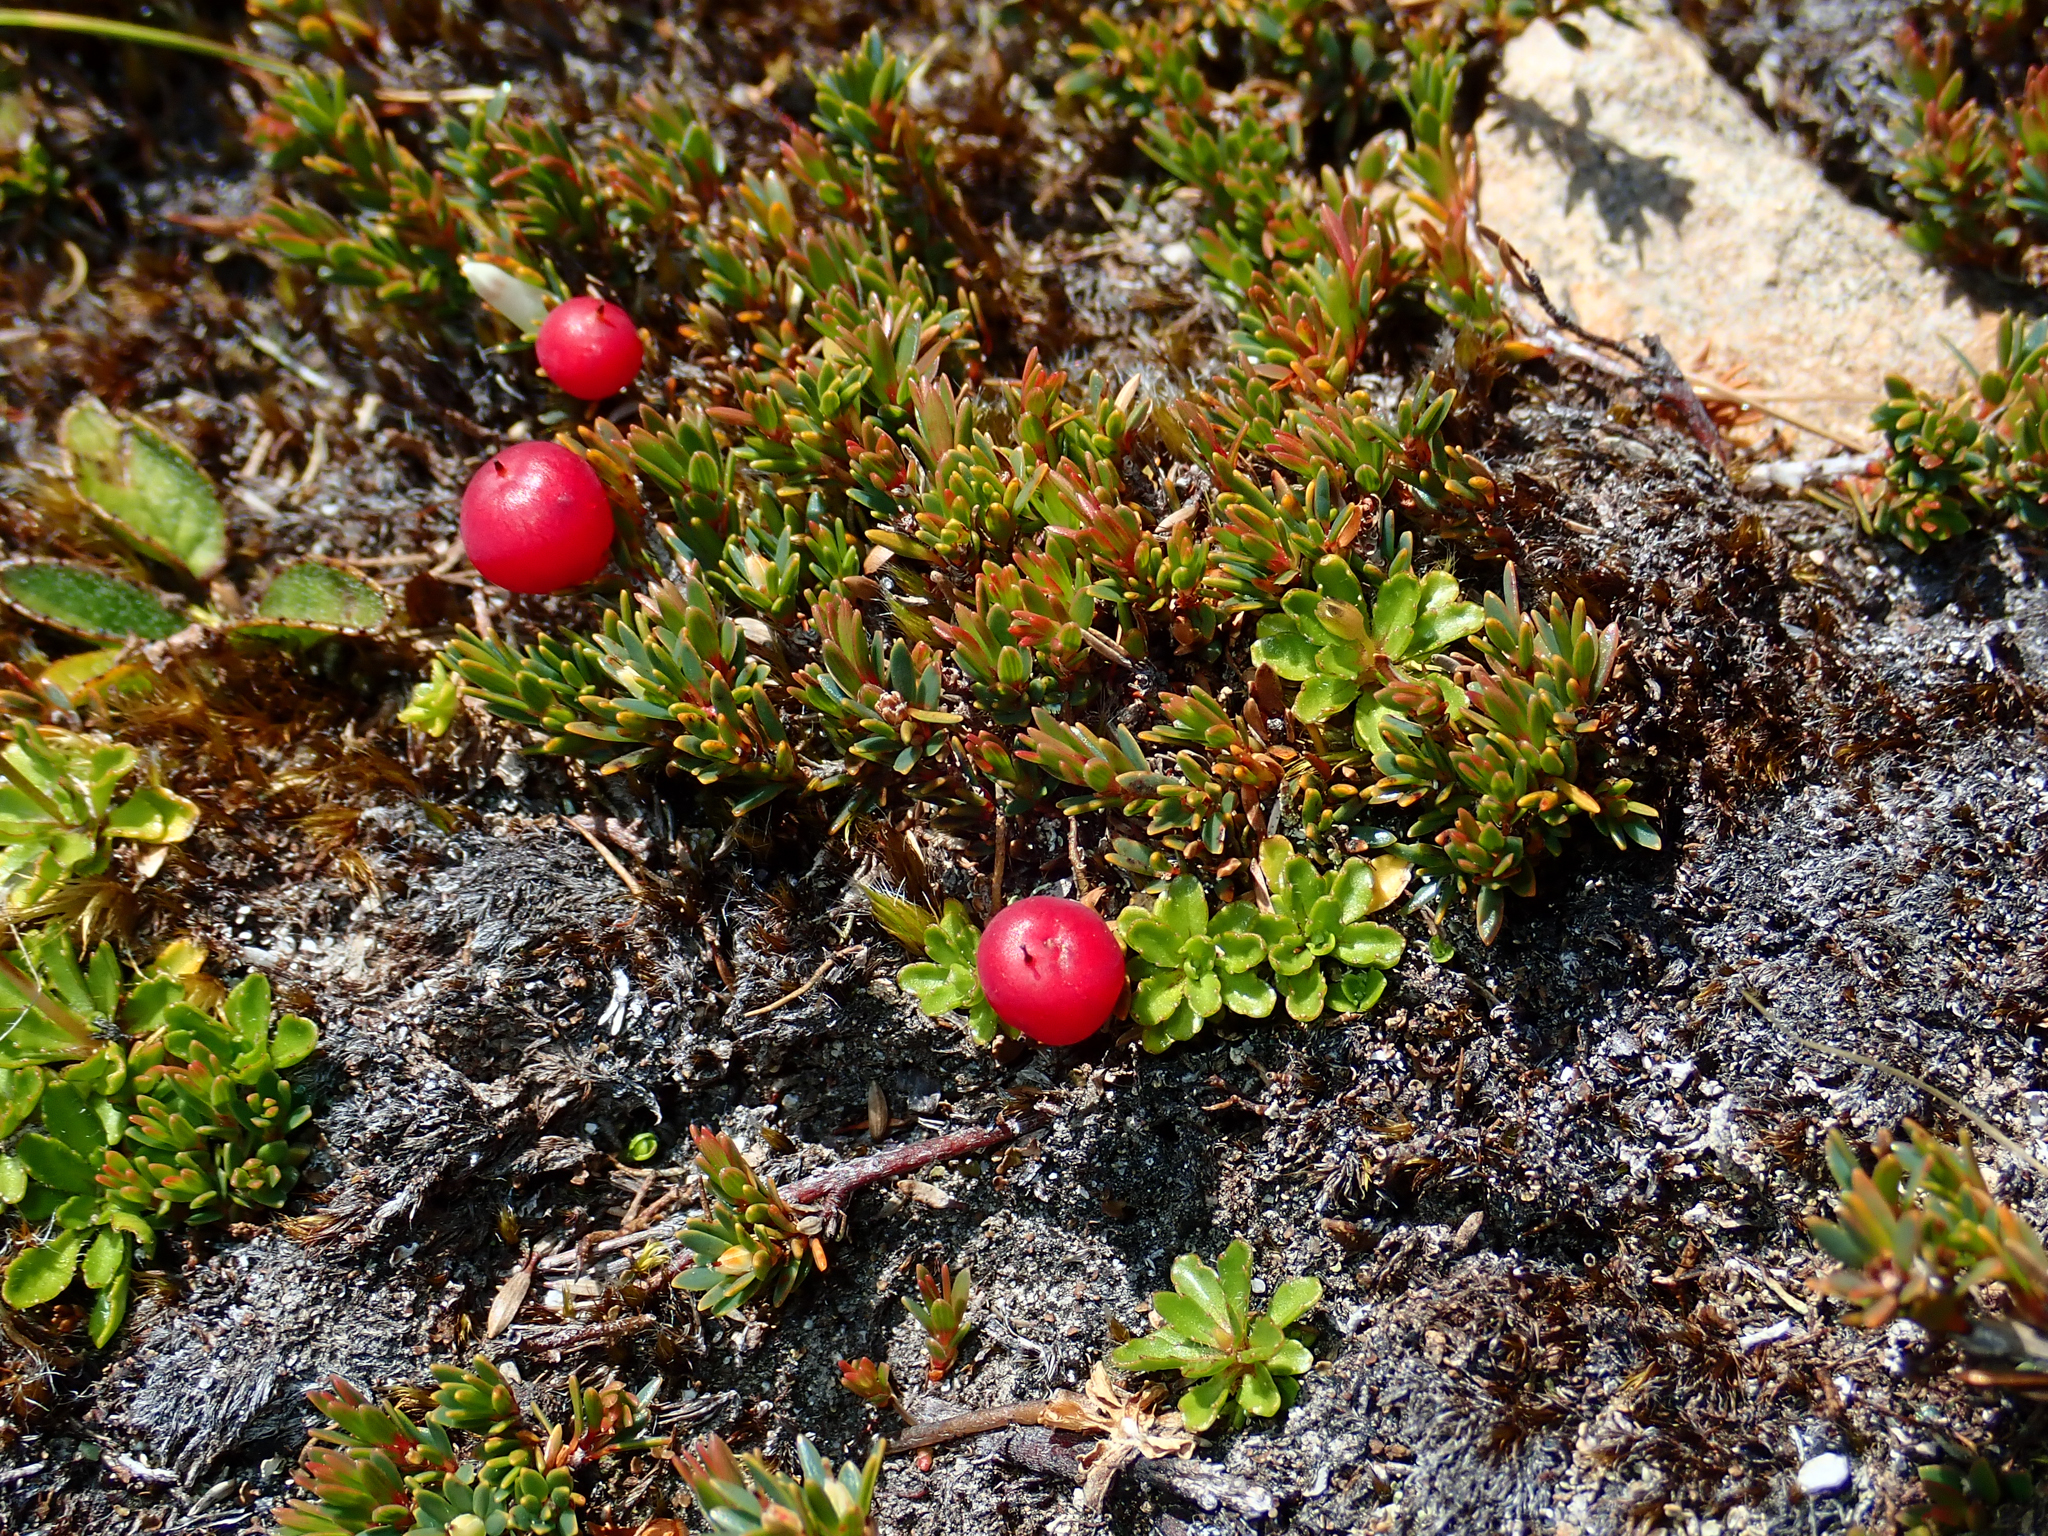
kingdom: Plantae
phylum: Tracheophyta
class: Magnoliopsida
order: Ericales
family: Ericaceae
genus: Pentachondra
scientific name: Pentachondra pumila
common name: Carpet-heath
